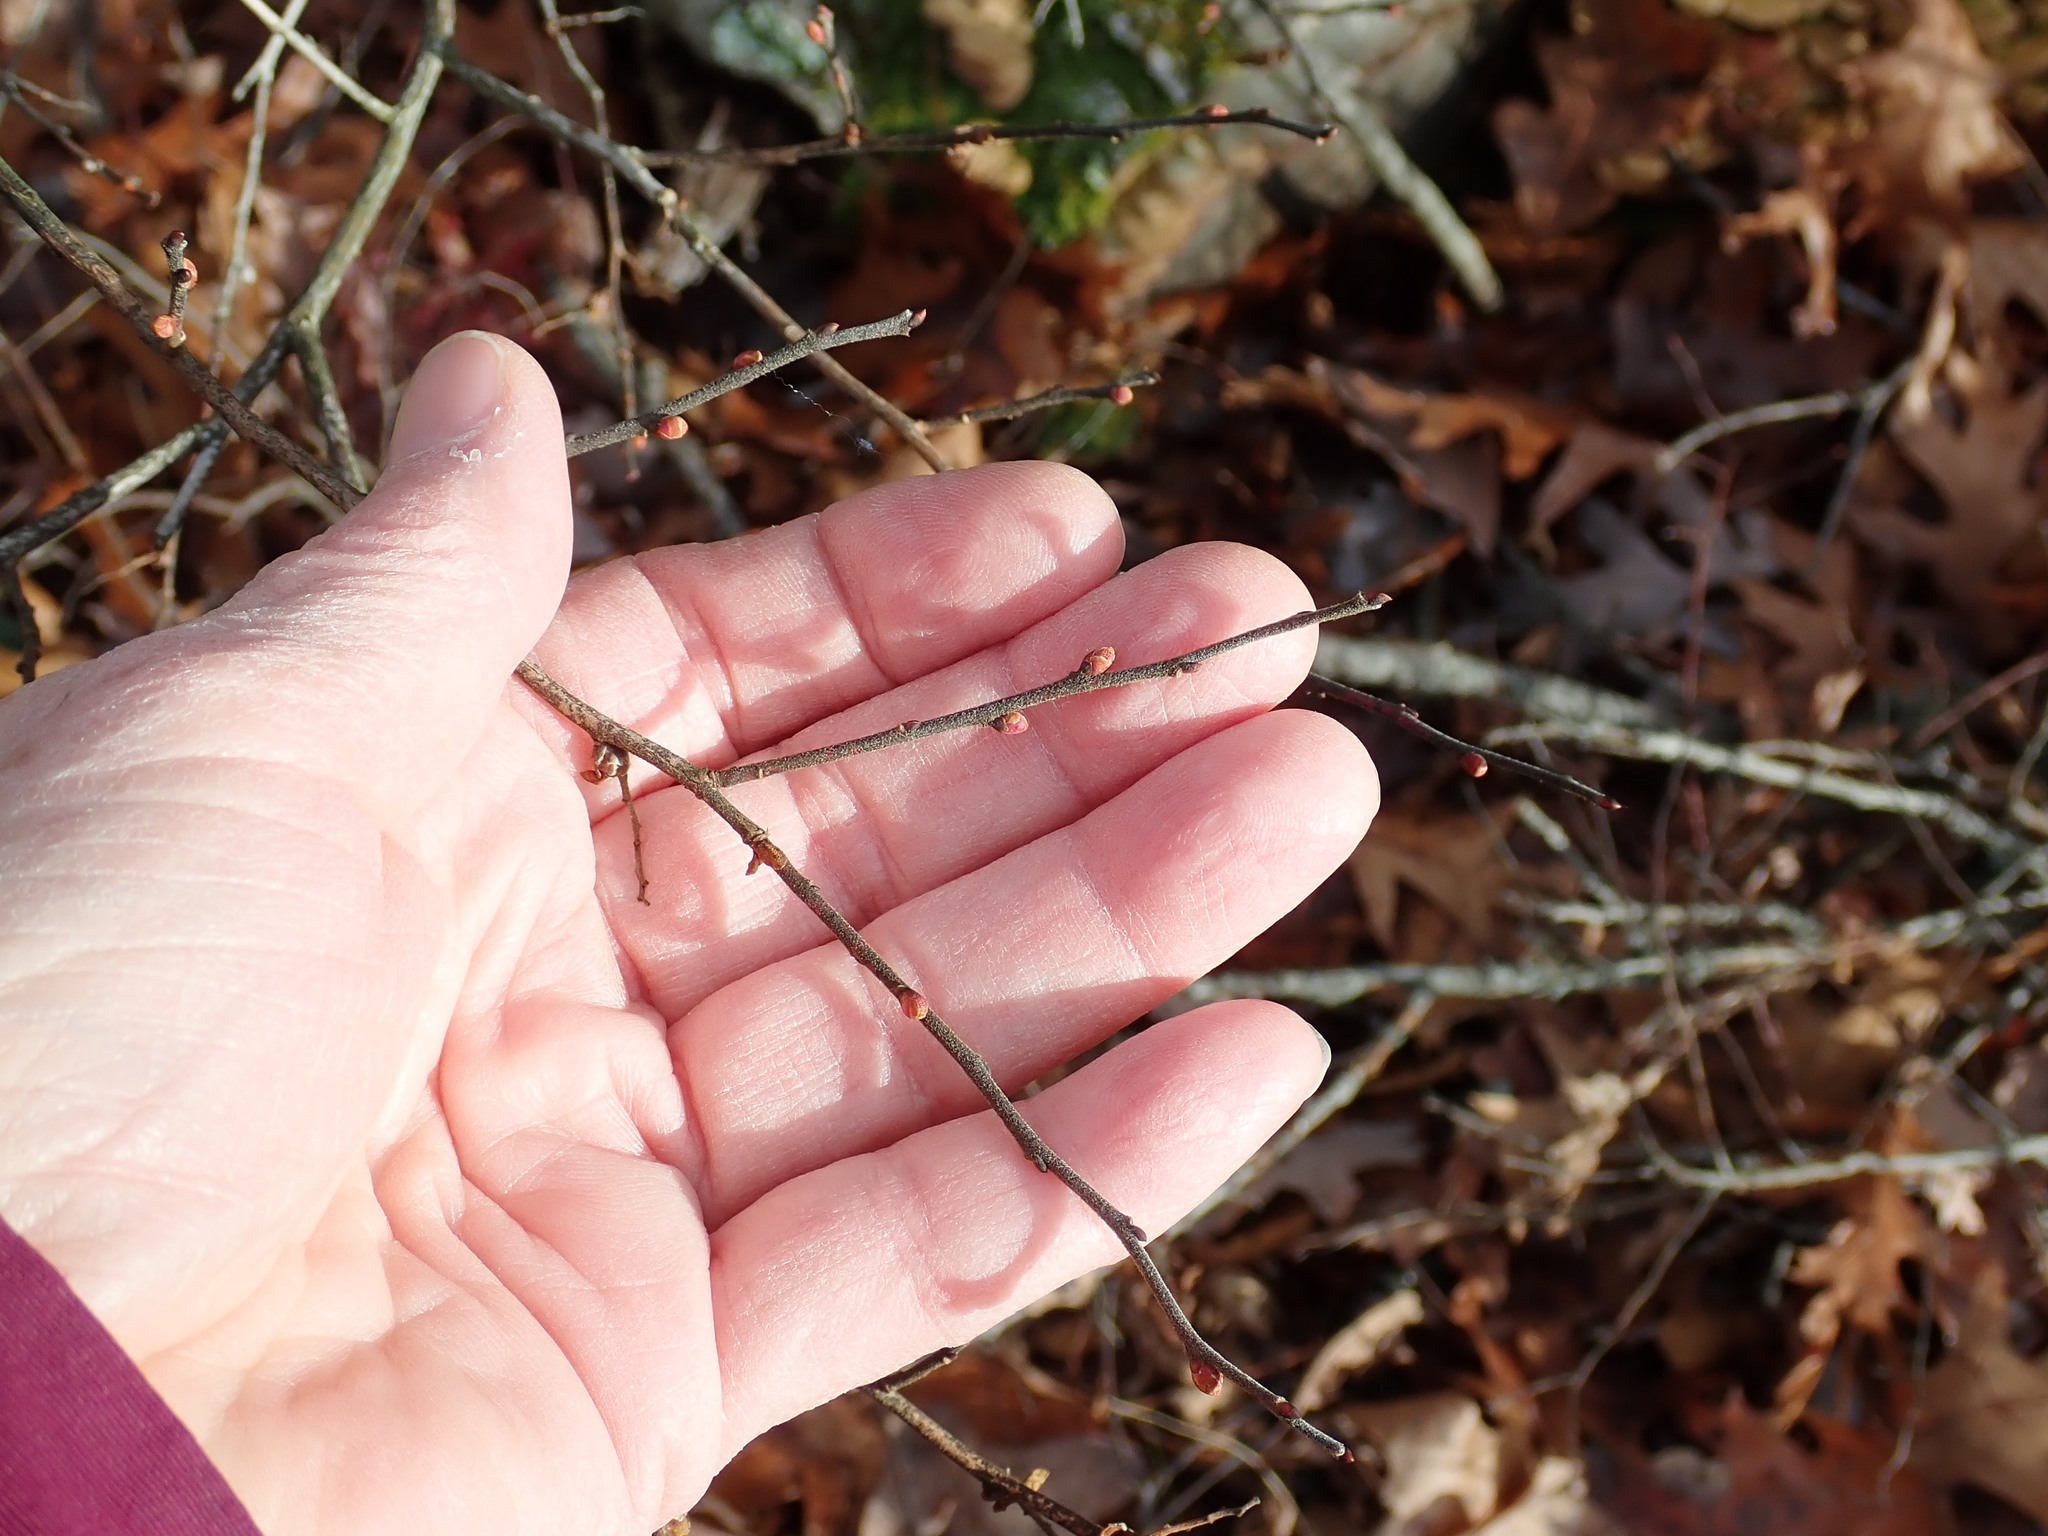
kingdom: Plantae
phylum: Tracheophyta
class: Magnoliopsida
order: Ericales
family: Ericaceae
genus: Gaylussacia
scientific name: Gaylussacia baccata
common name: Black huckleberry
